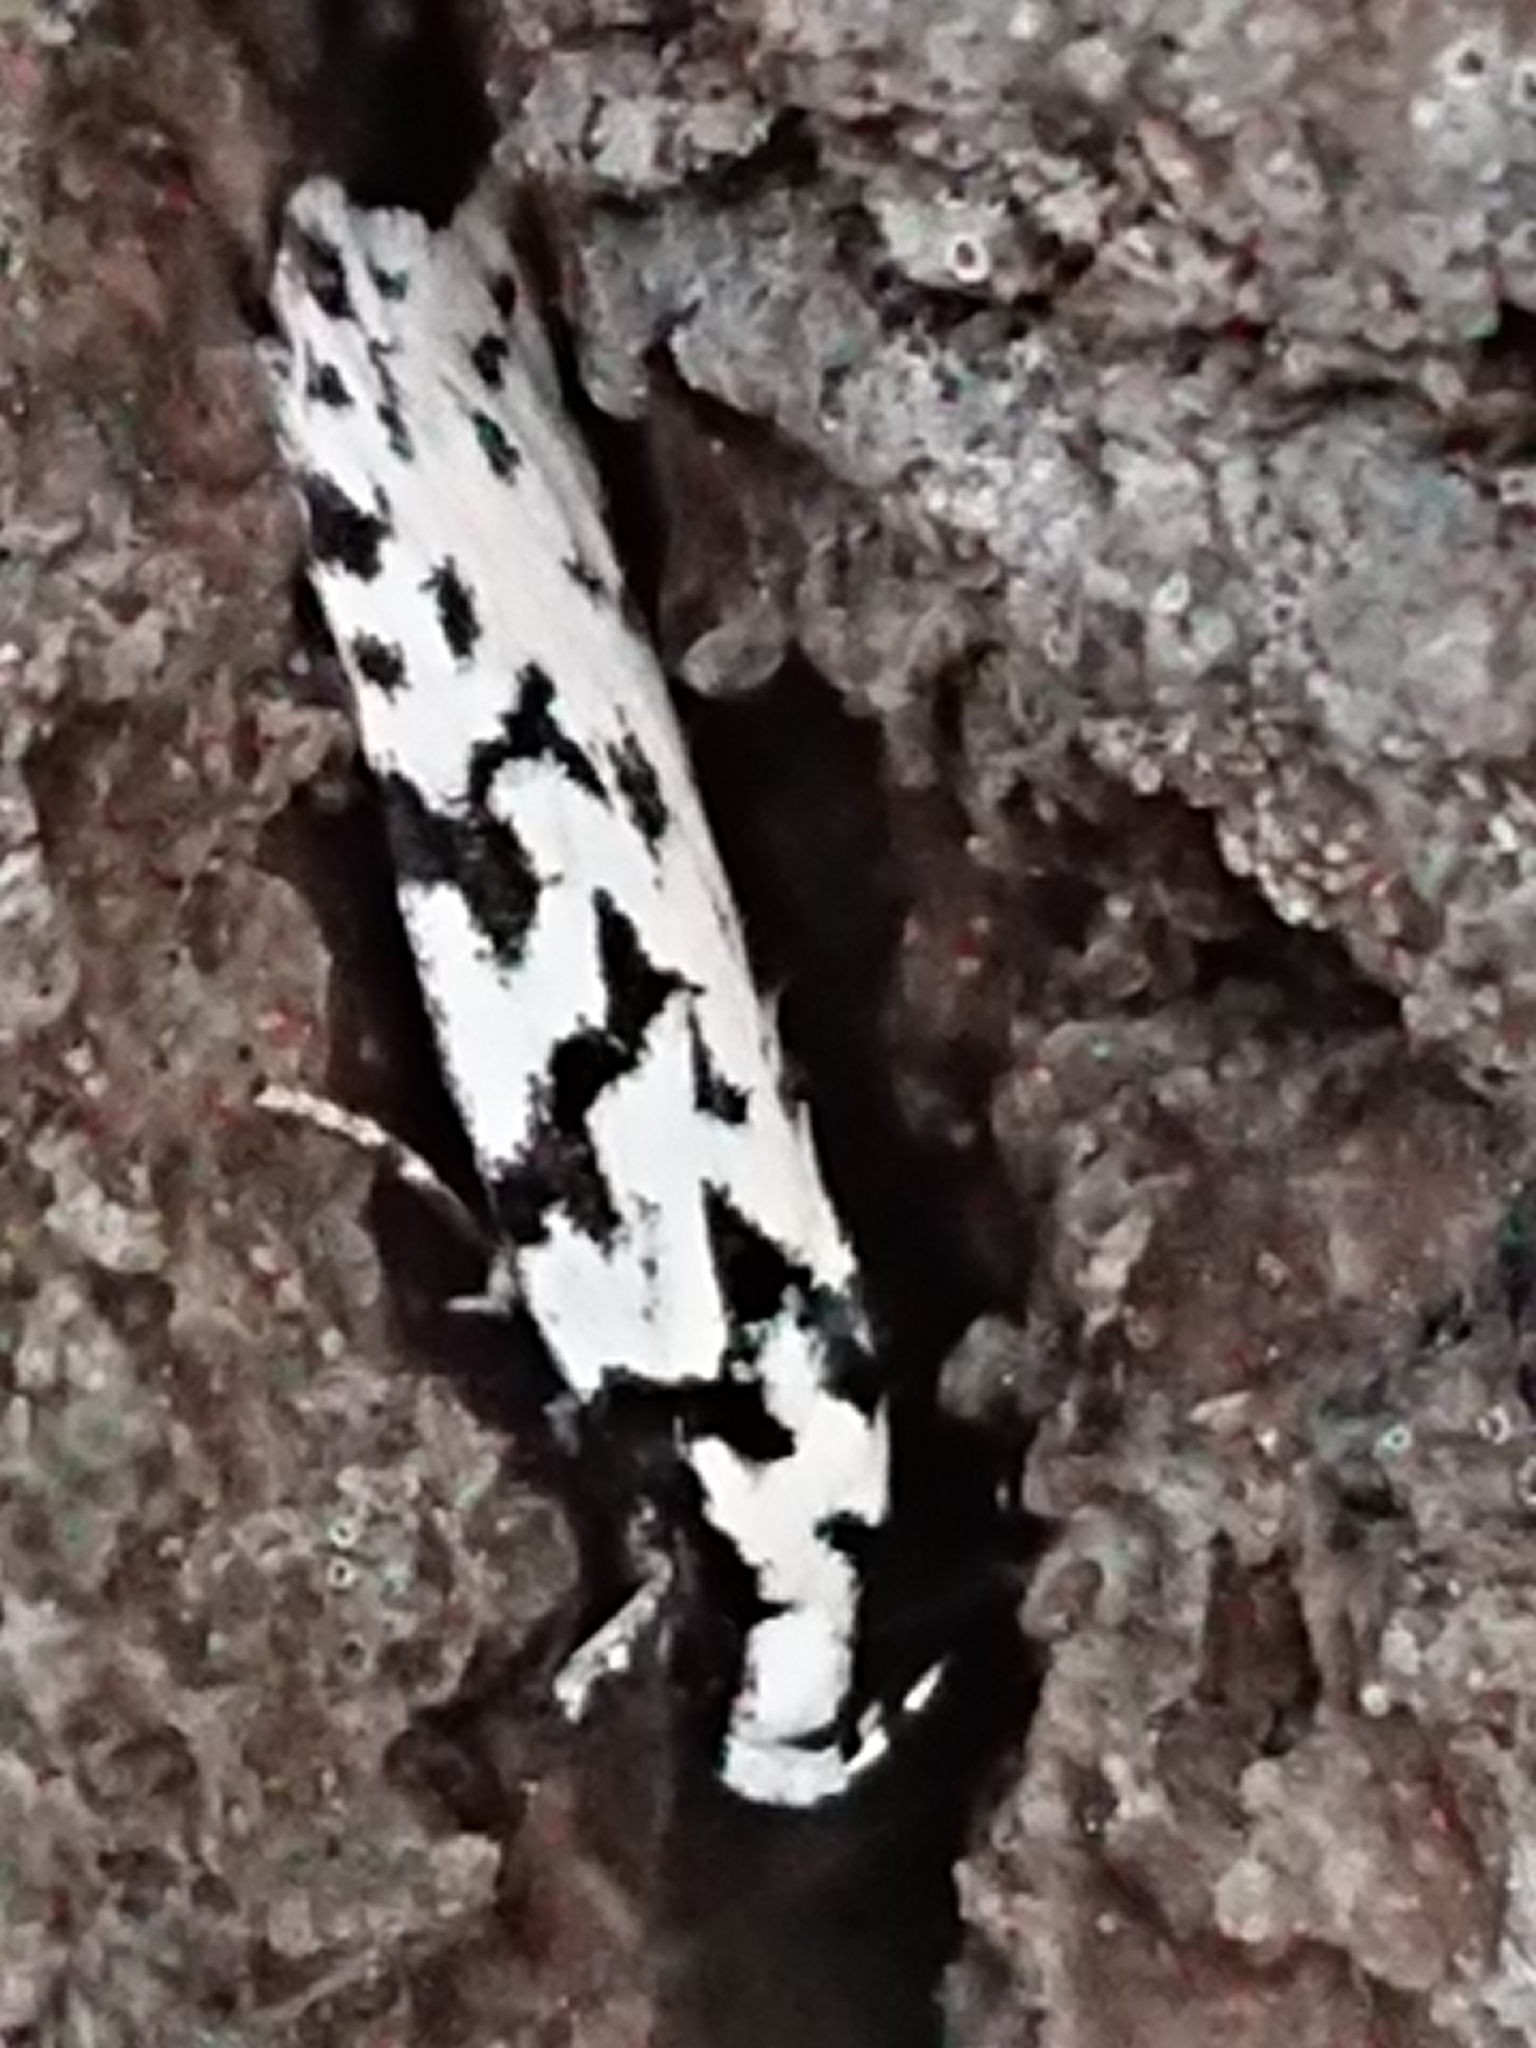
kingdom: Animalia
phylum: Arthropoda
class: Insecta
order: Lepidoptera
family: Oecophoridae
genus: Izatha
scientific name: Izatha katadiktya
